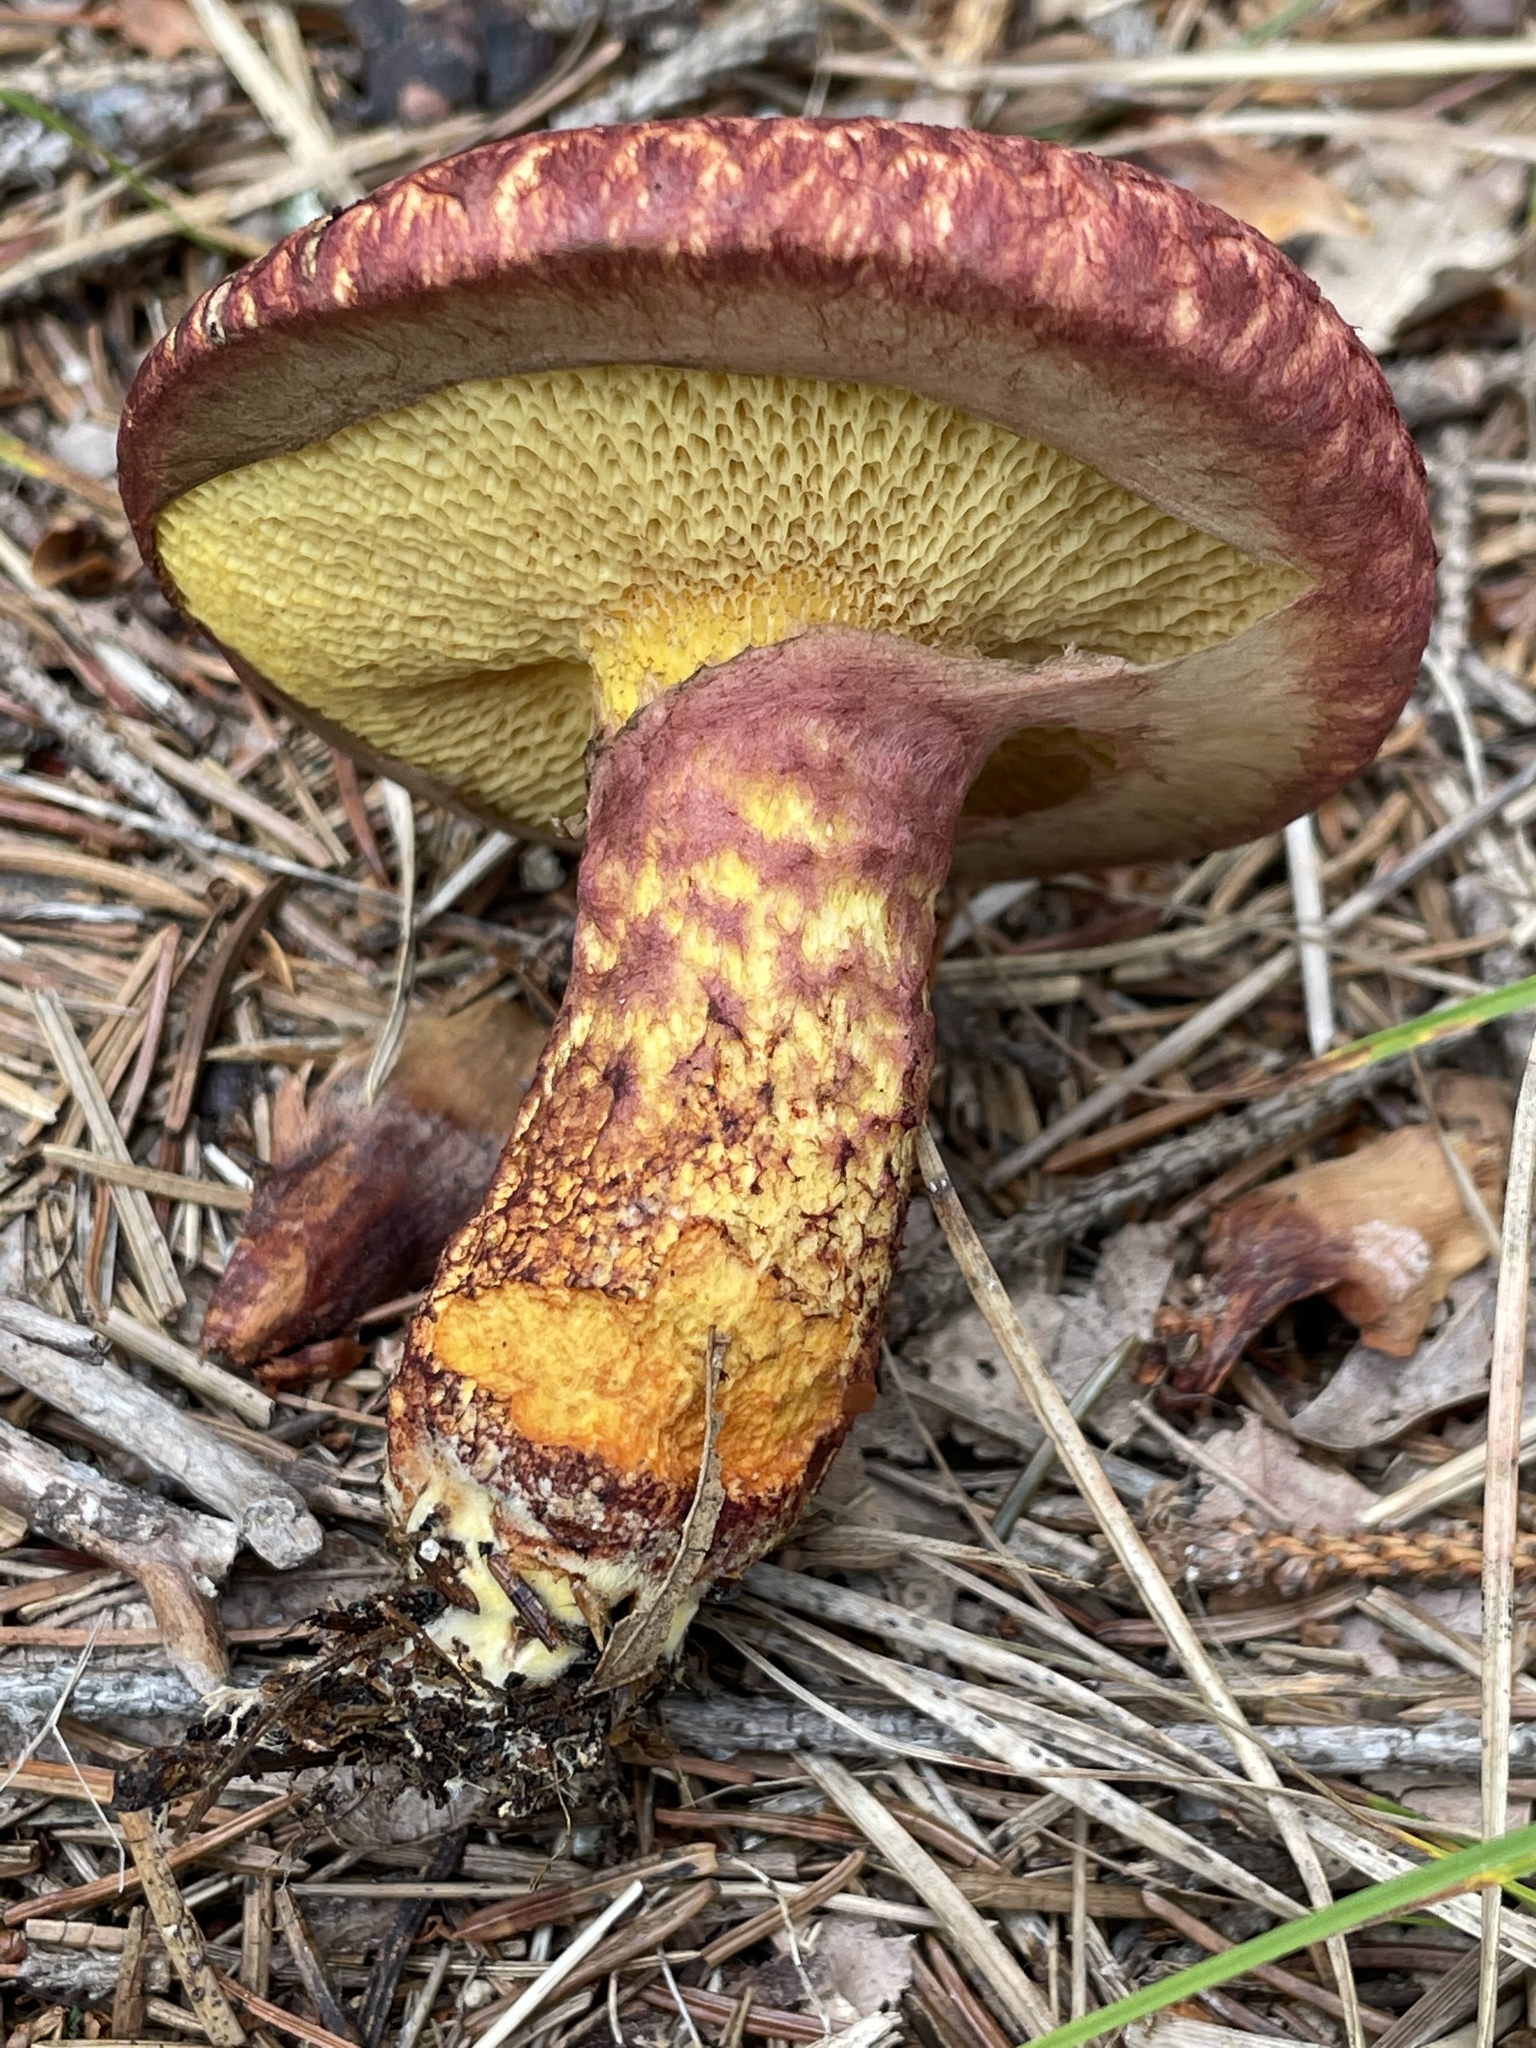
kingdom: Fungi
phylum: Basidiomycota
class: Agaricomycetes
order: Boletales
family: Suillaceae
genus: Suillus
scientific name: Suillus spraguei
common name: Painted suillus
